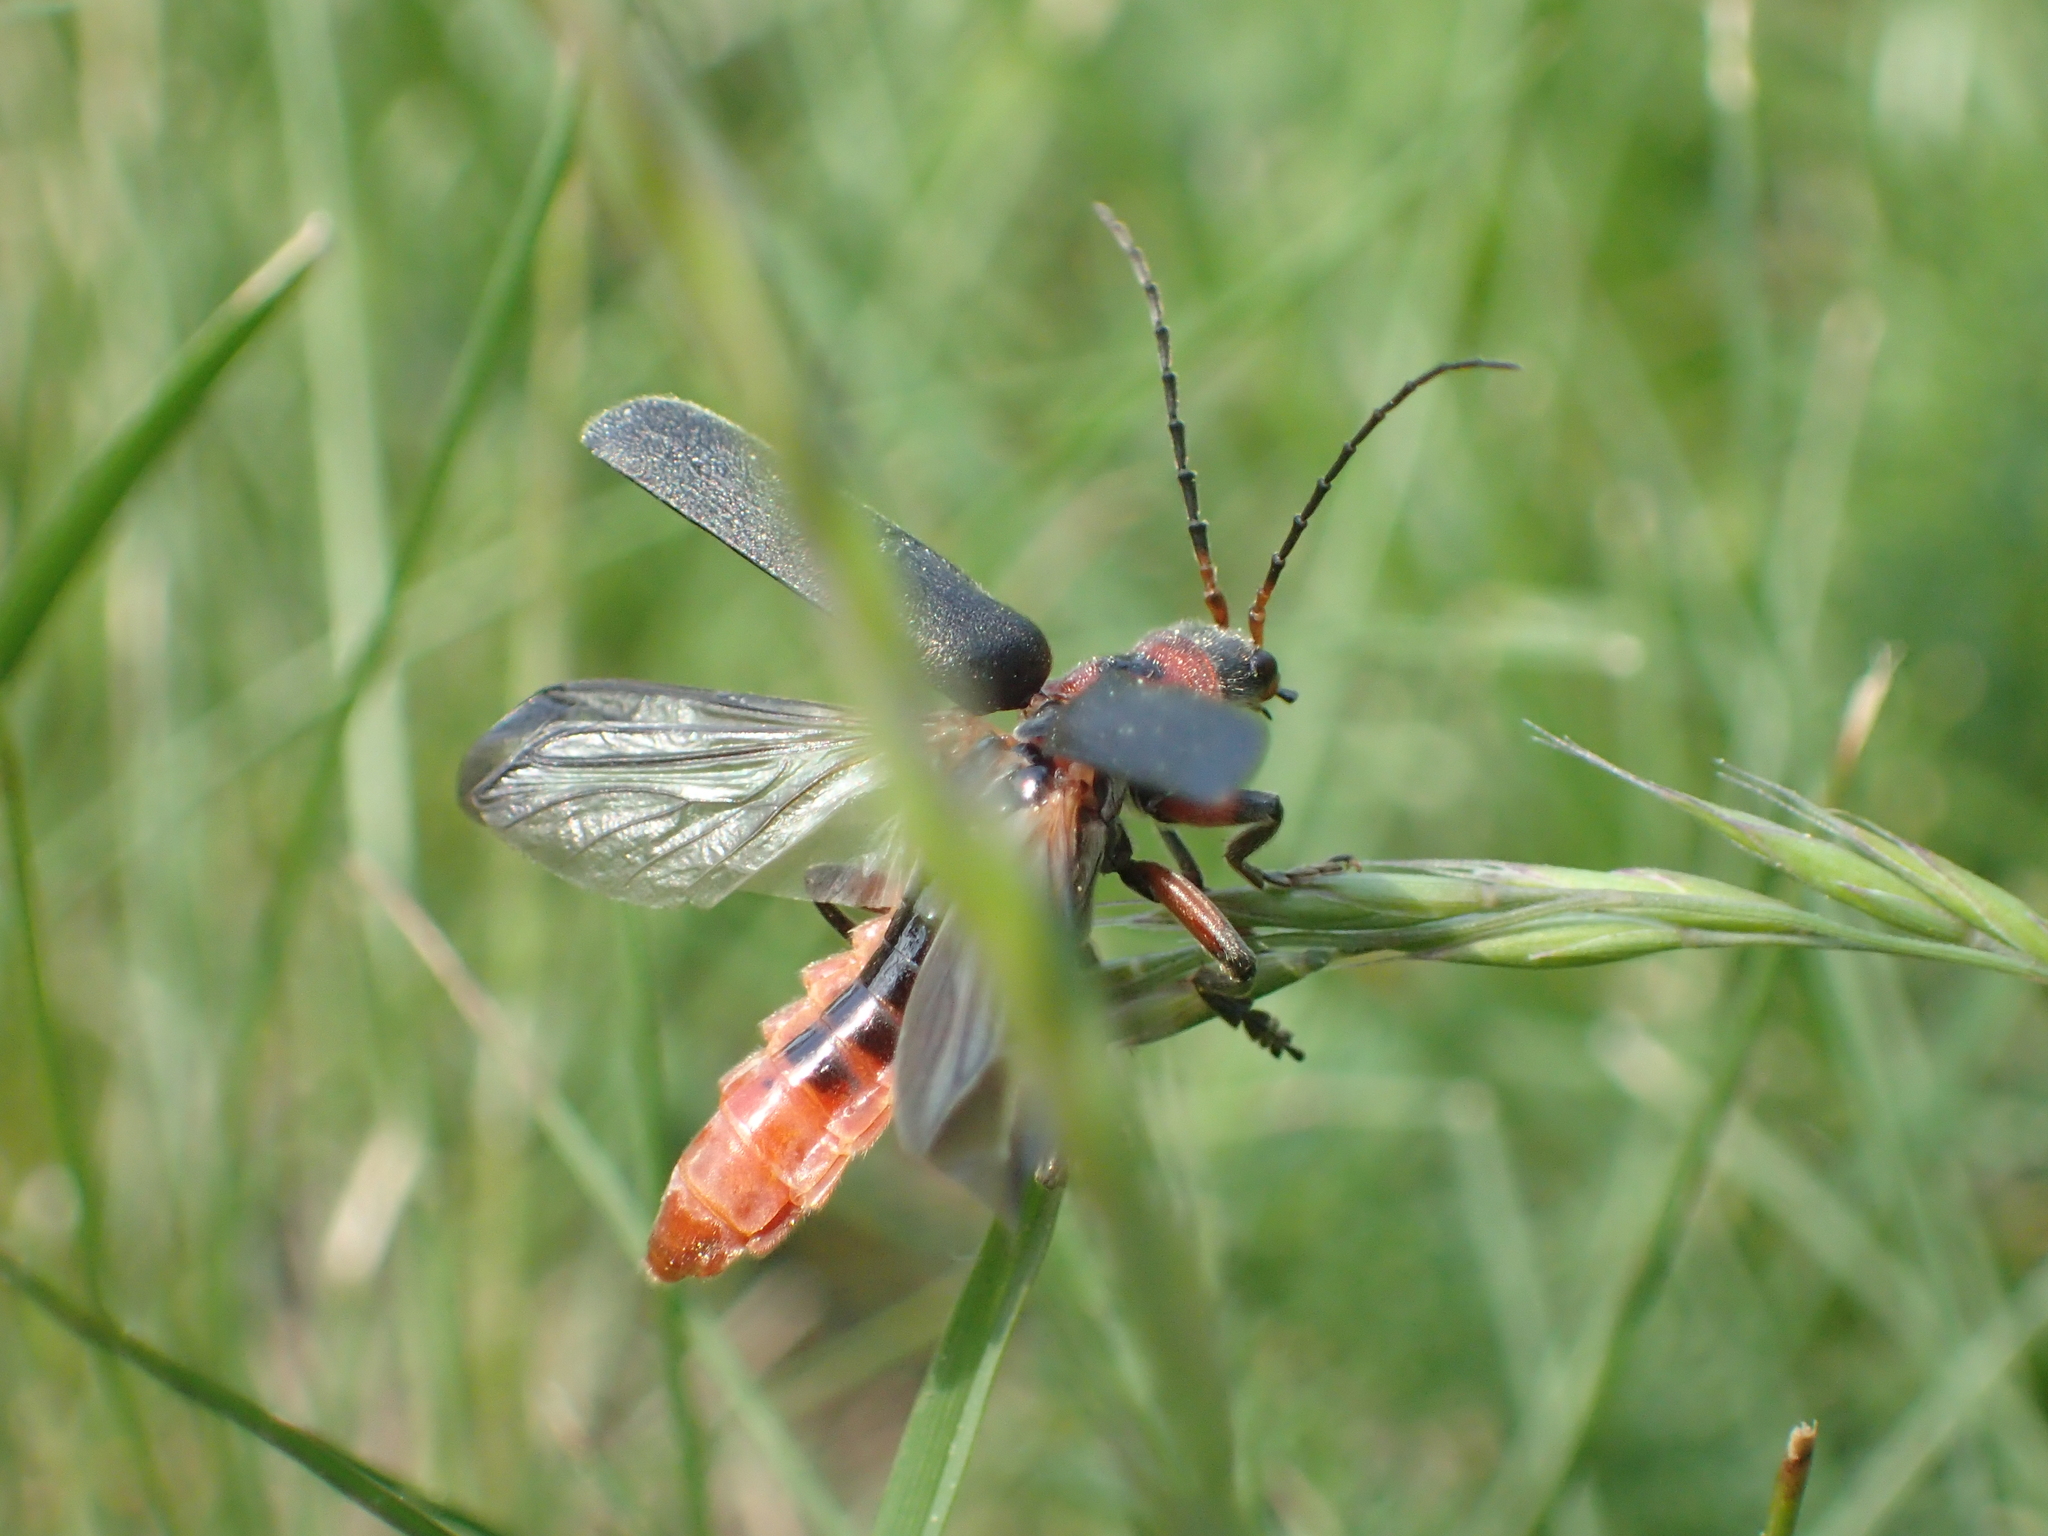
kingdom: Animalia
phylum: Arthropoda
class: Insecta
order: Coleoptera
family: Cantharidae
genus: Cantharis
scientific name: Cantharis rustica
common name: Soldier beetle
